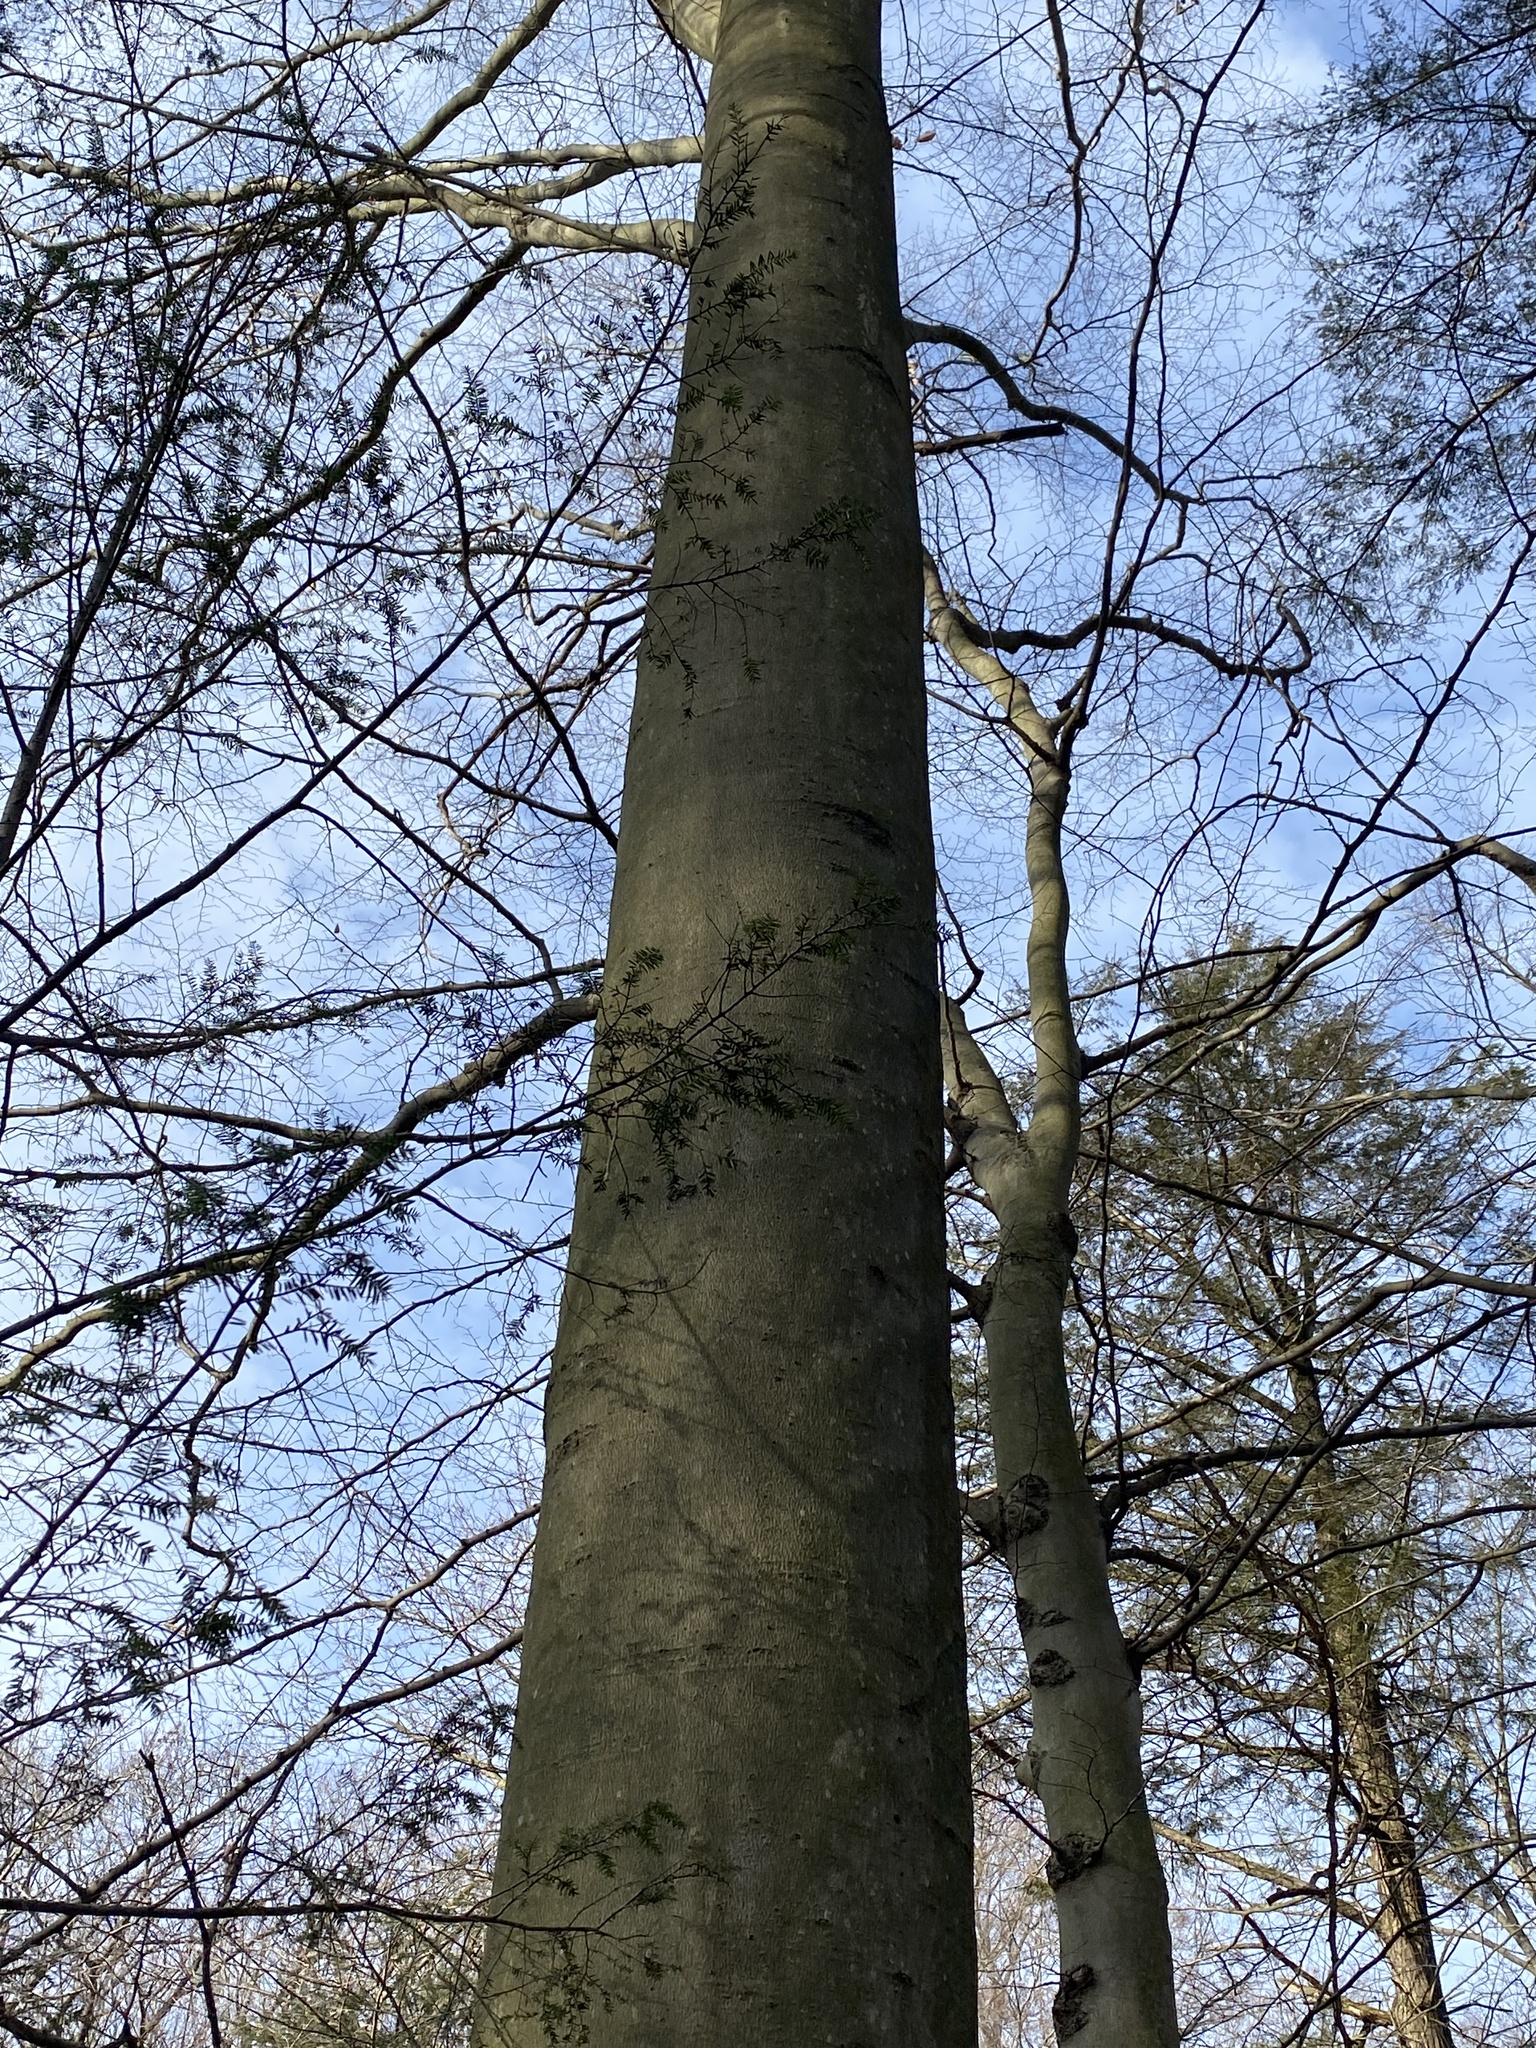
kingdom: Plantae
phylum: Tracheophyta
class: Magnoliopsida
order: Fagales
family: Fagaceae
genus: Fagus
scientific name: Fagus grandifolia
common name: American beech
